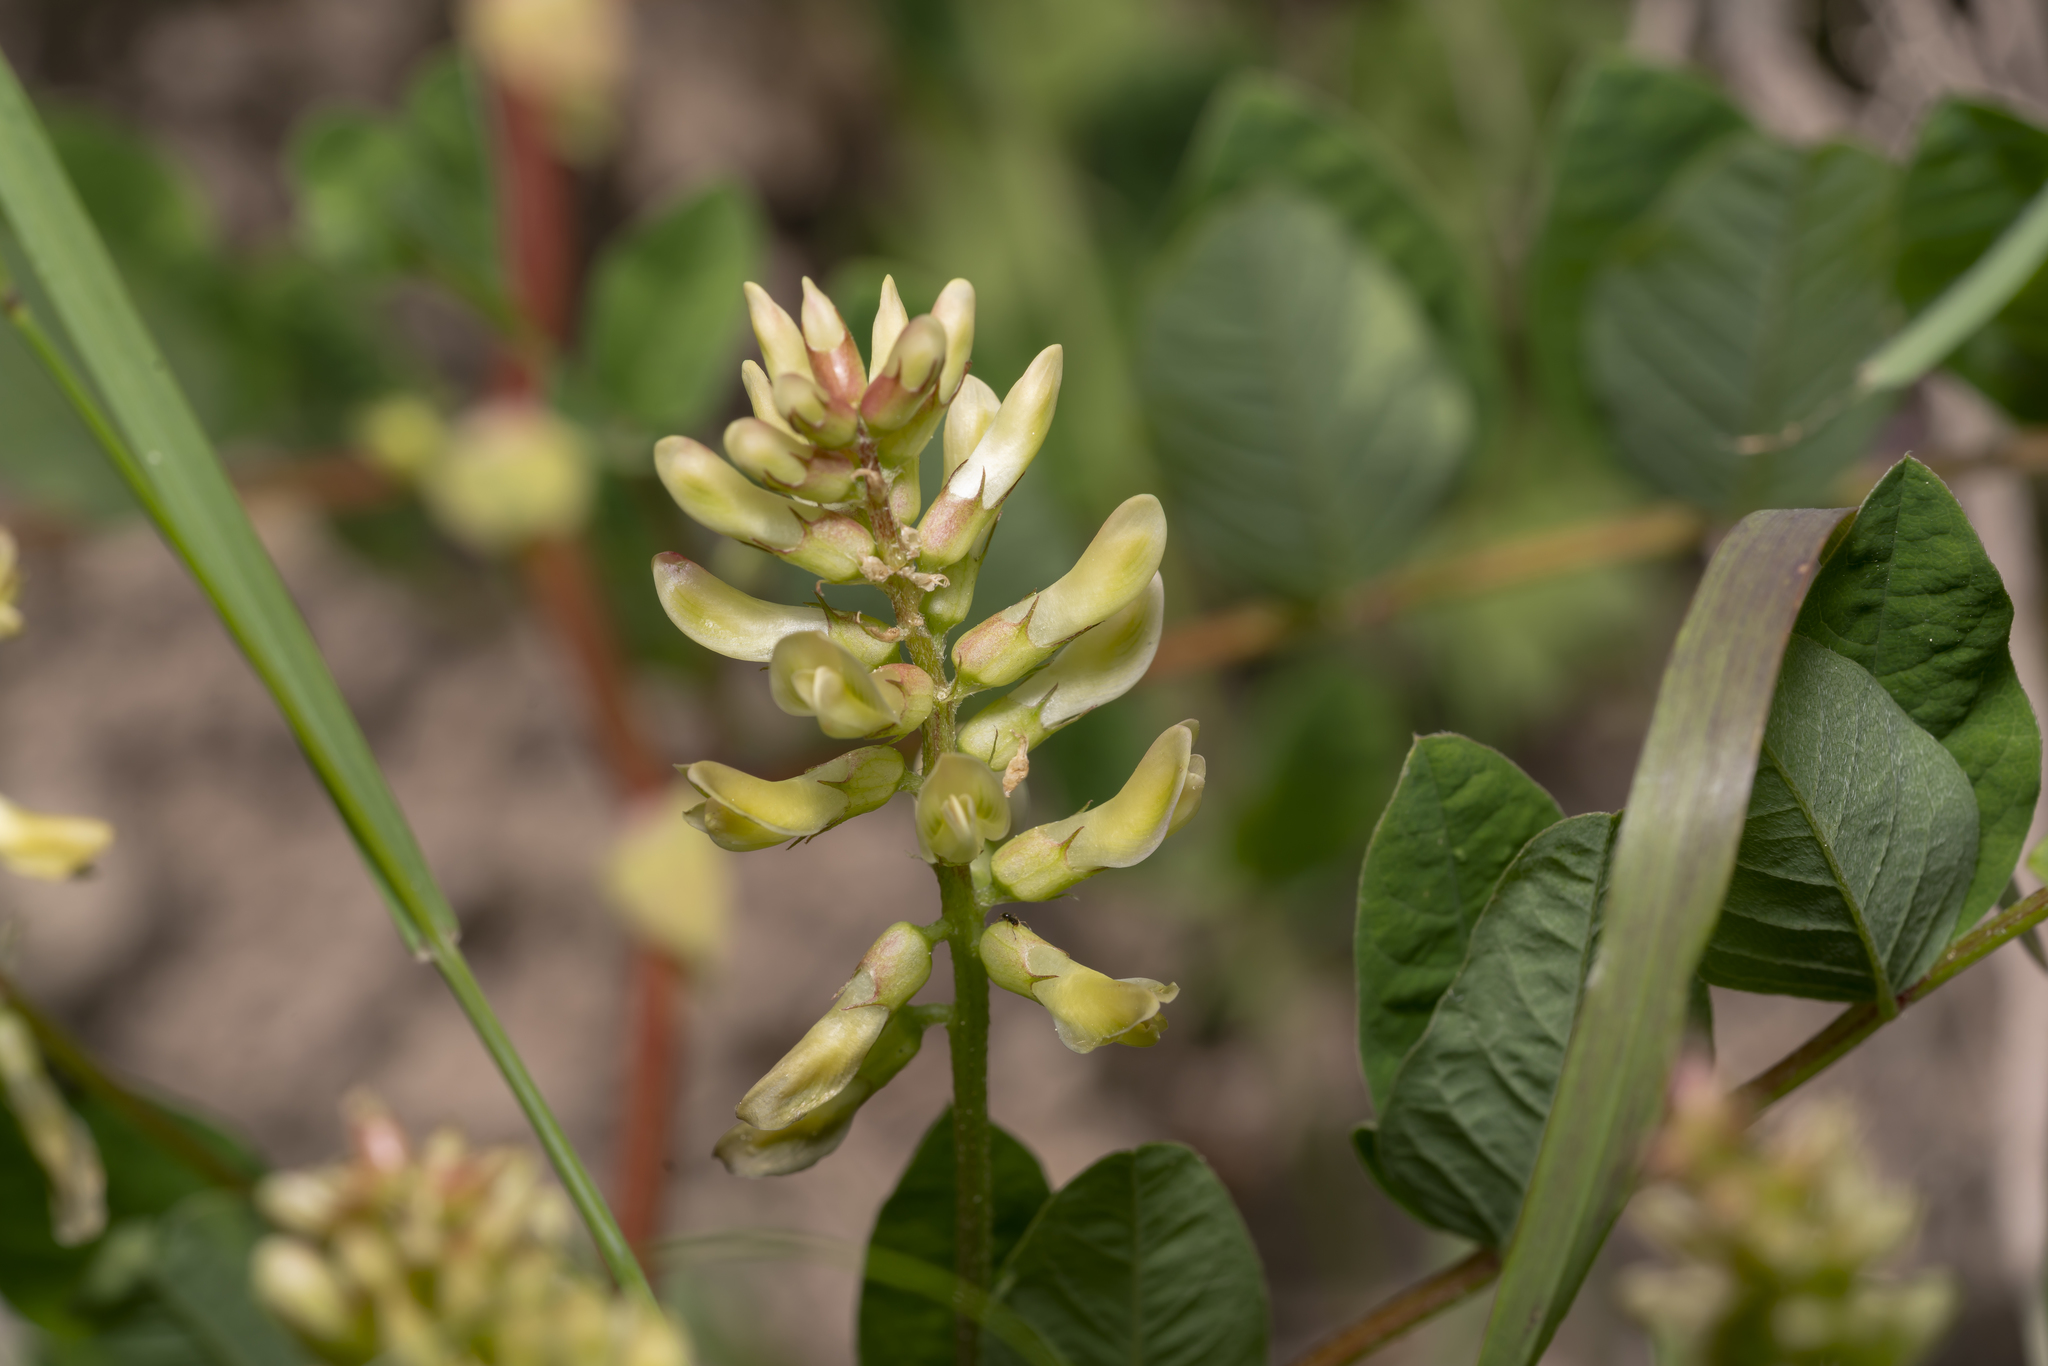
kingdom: Plantae
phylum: Tracheophyta
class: Magnoliopsida
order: Fabales
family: Fabaceae
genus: Astragalus
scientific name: Astragalus glycyphyllos
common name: Wild liquorice
